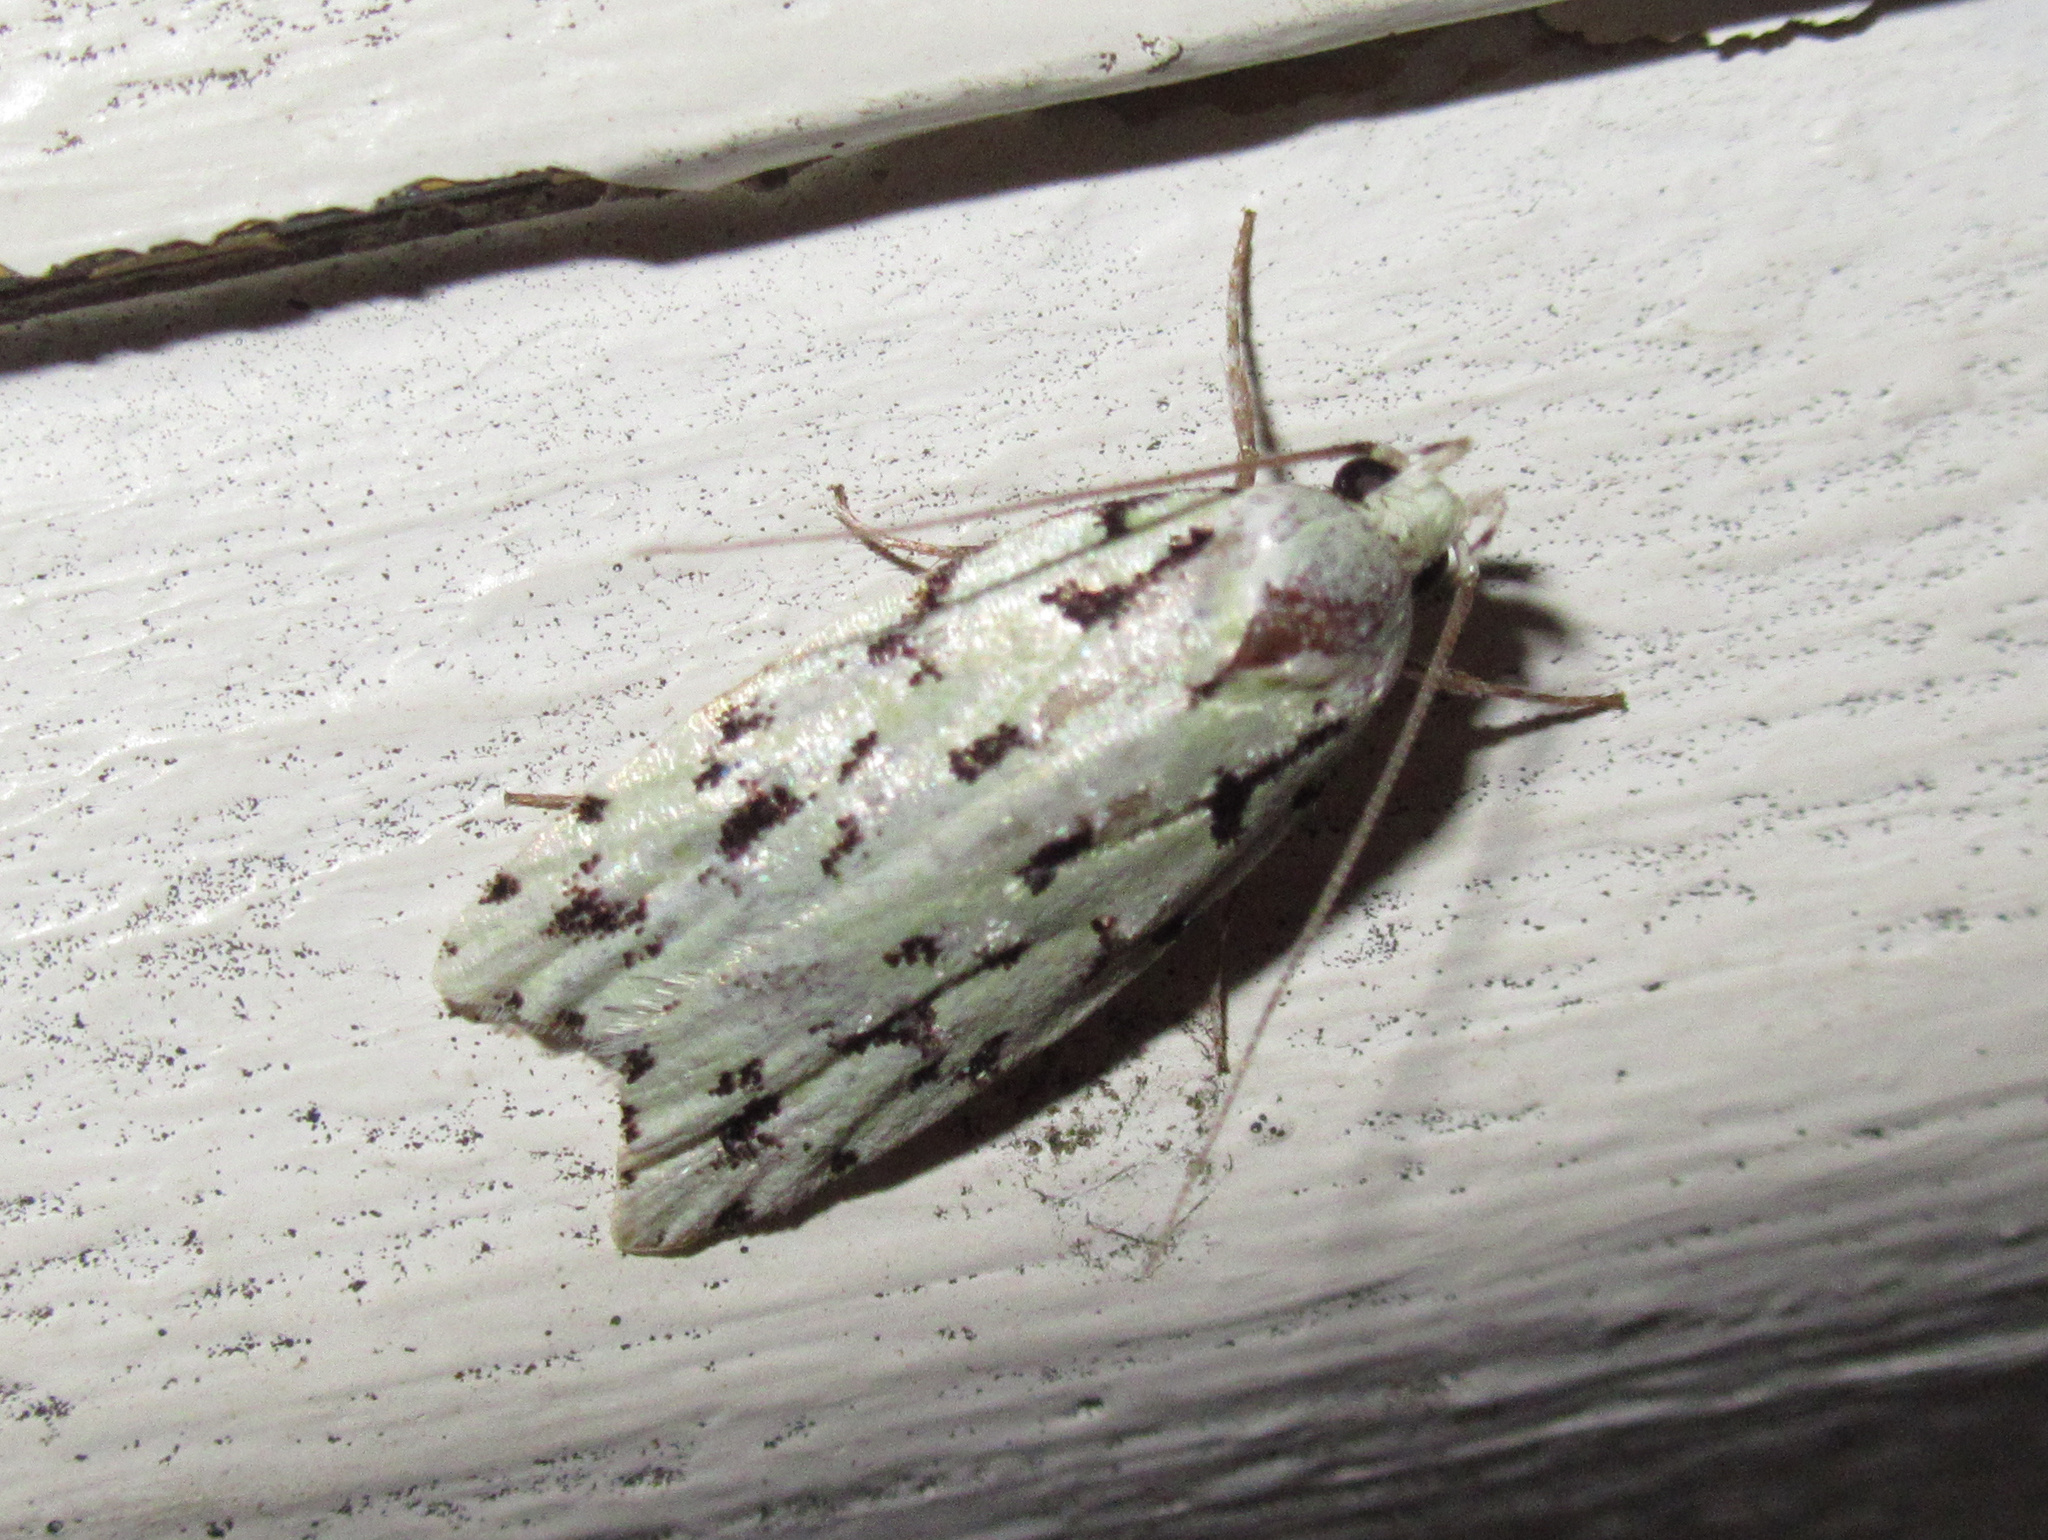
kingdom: Animalia
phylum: Arthropoda
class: Insecta
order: Lepidoptera
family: Oecophoridae
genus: Izatha
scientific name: Izatha peroneanella
